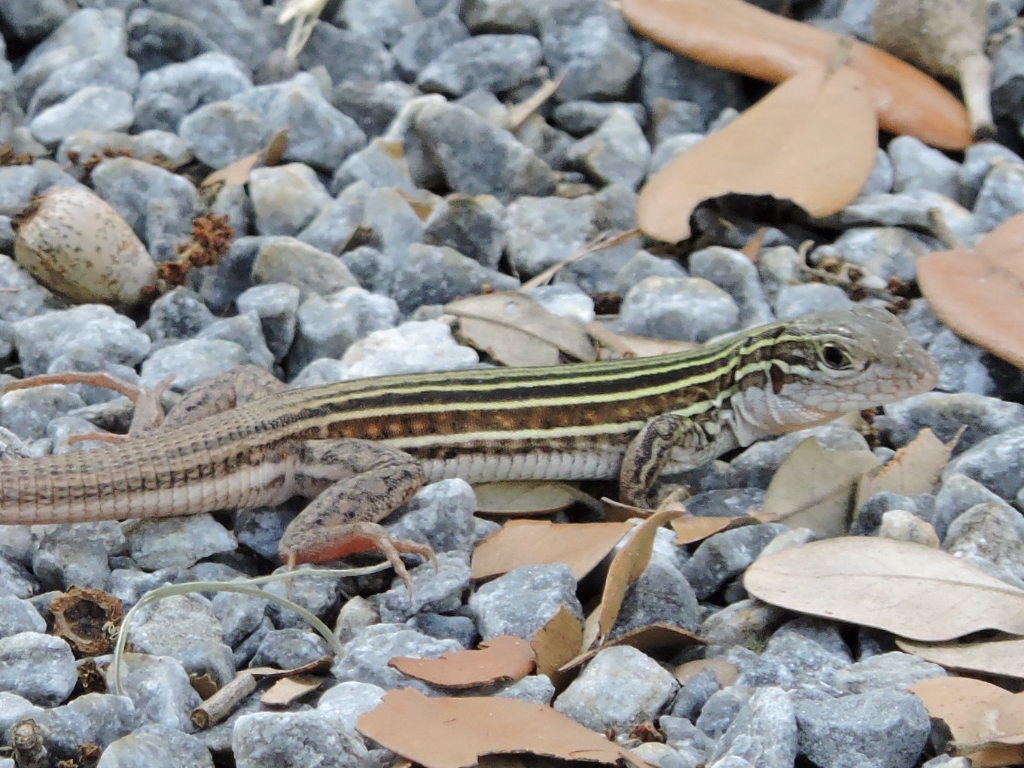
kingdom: Animalia
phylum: Chordata
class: Squamata
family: Teiidae
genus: Aspidoscelis
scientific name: Aspidoscelis gularis
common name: Eastern spotted whiptail
